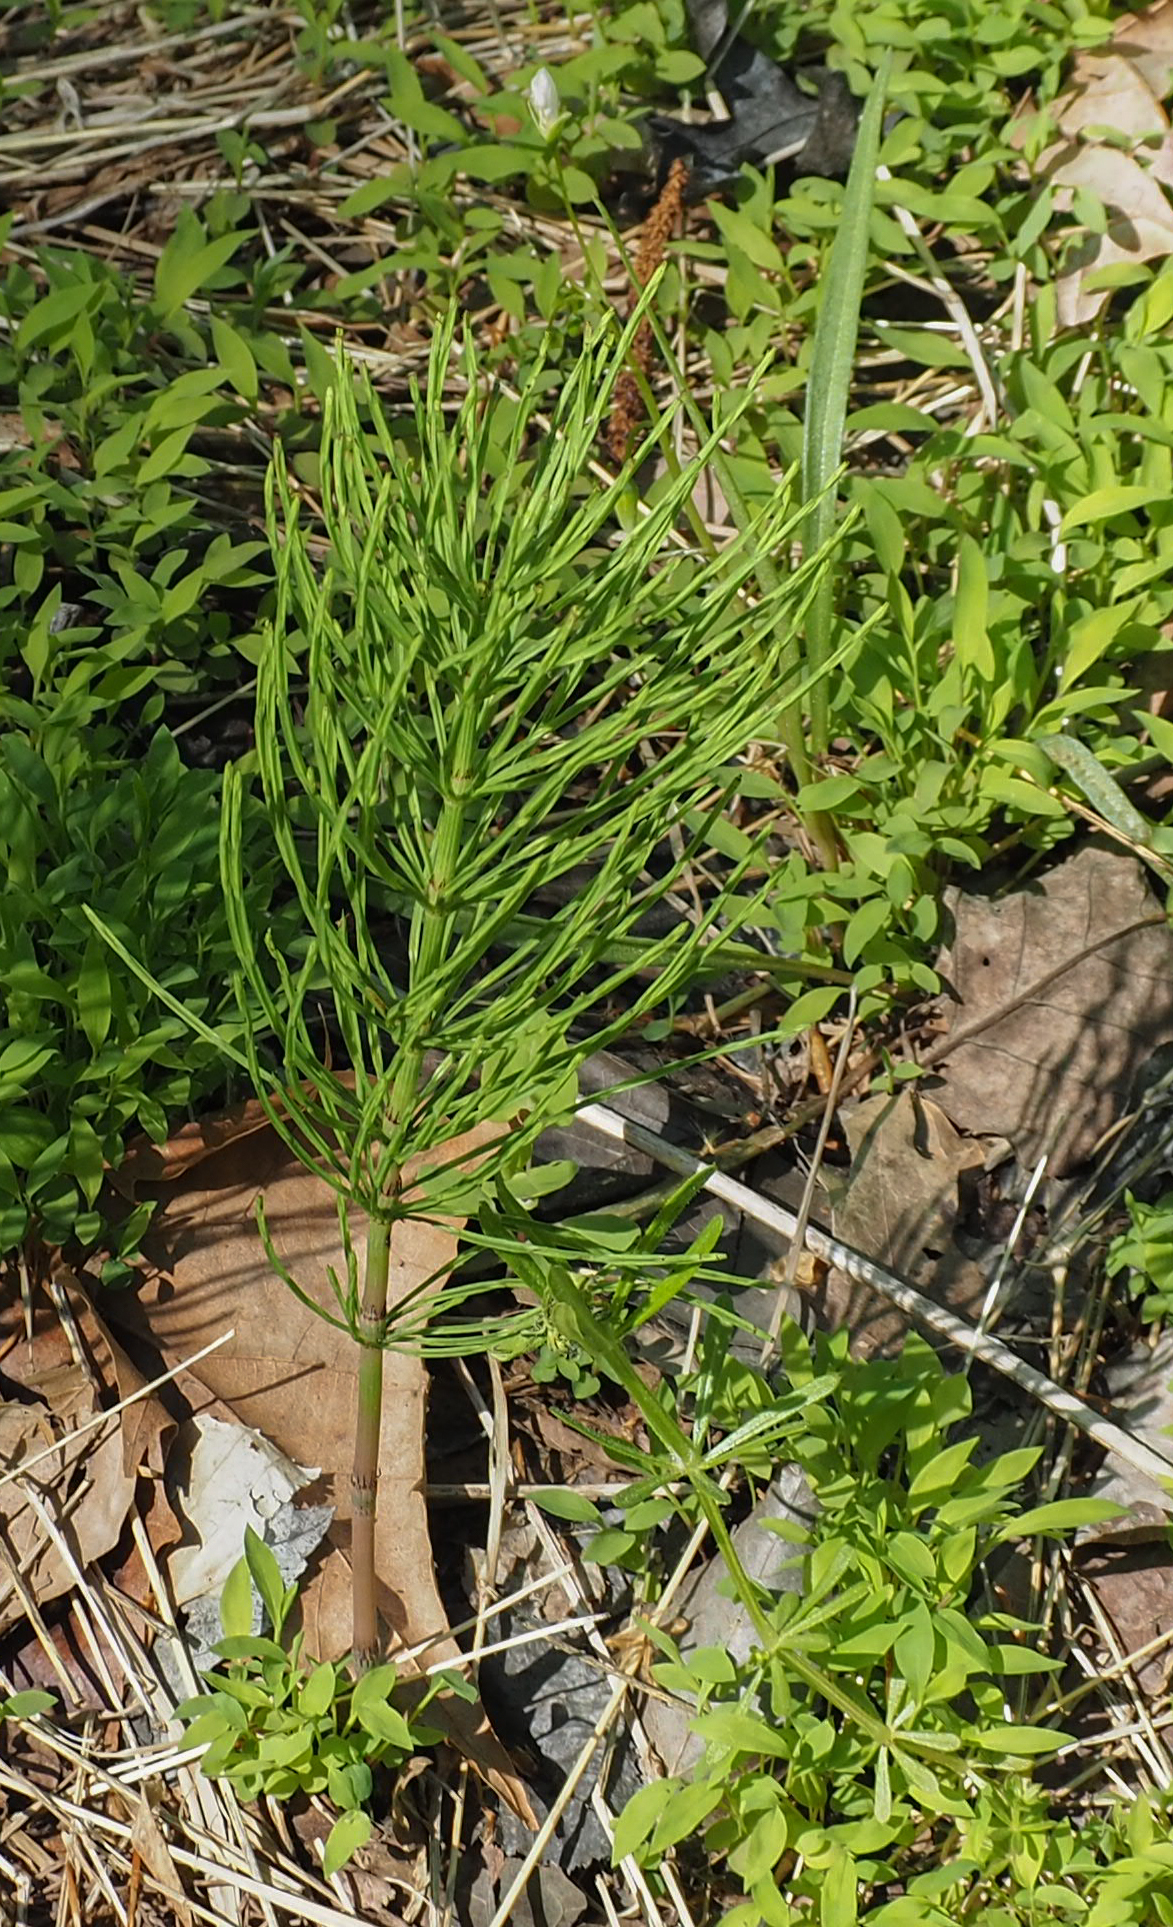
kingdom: Plantae
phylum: Tracheophyta
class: Polypodiopsida
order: Equisetales
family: Equisetaceae
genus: Equisetum
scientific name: Equisetum arvense
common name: Field horsetail
